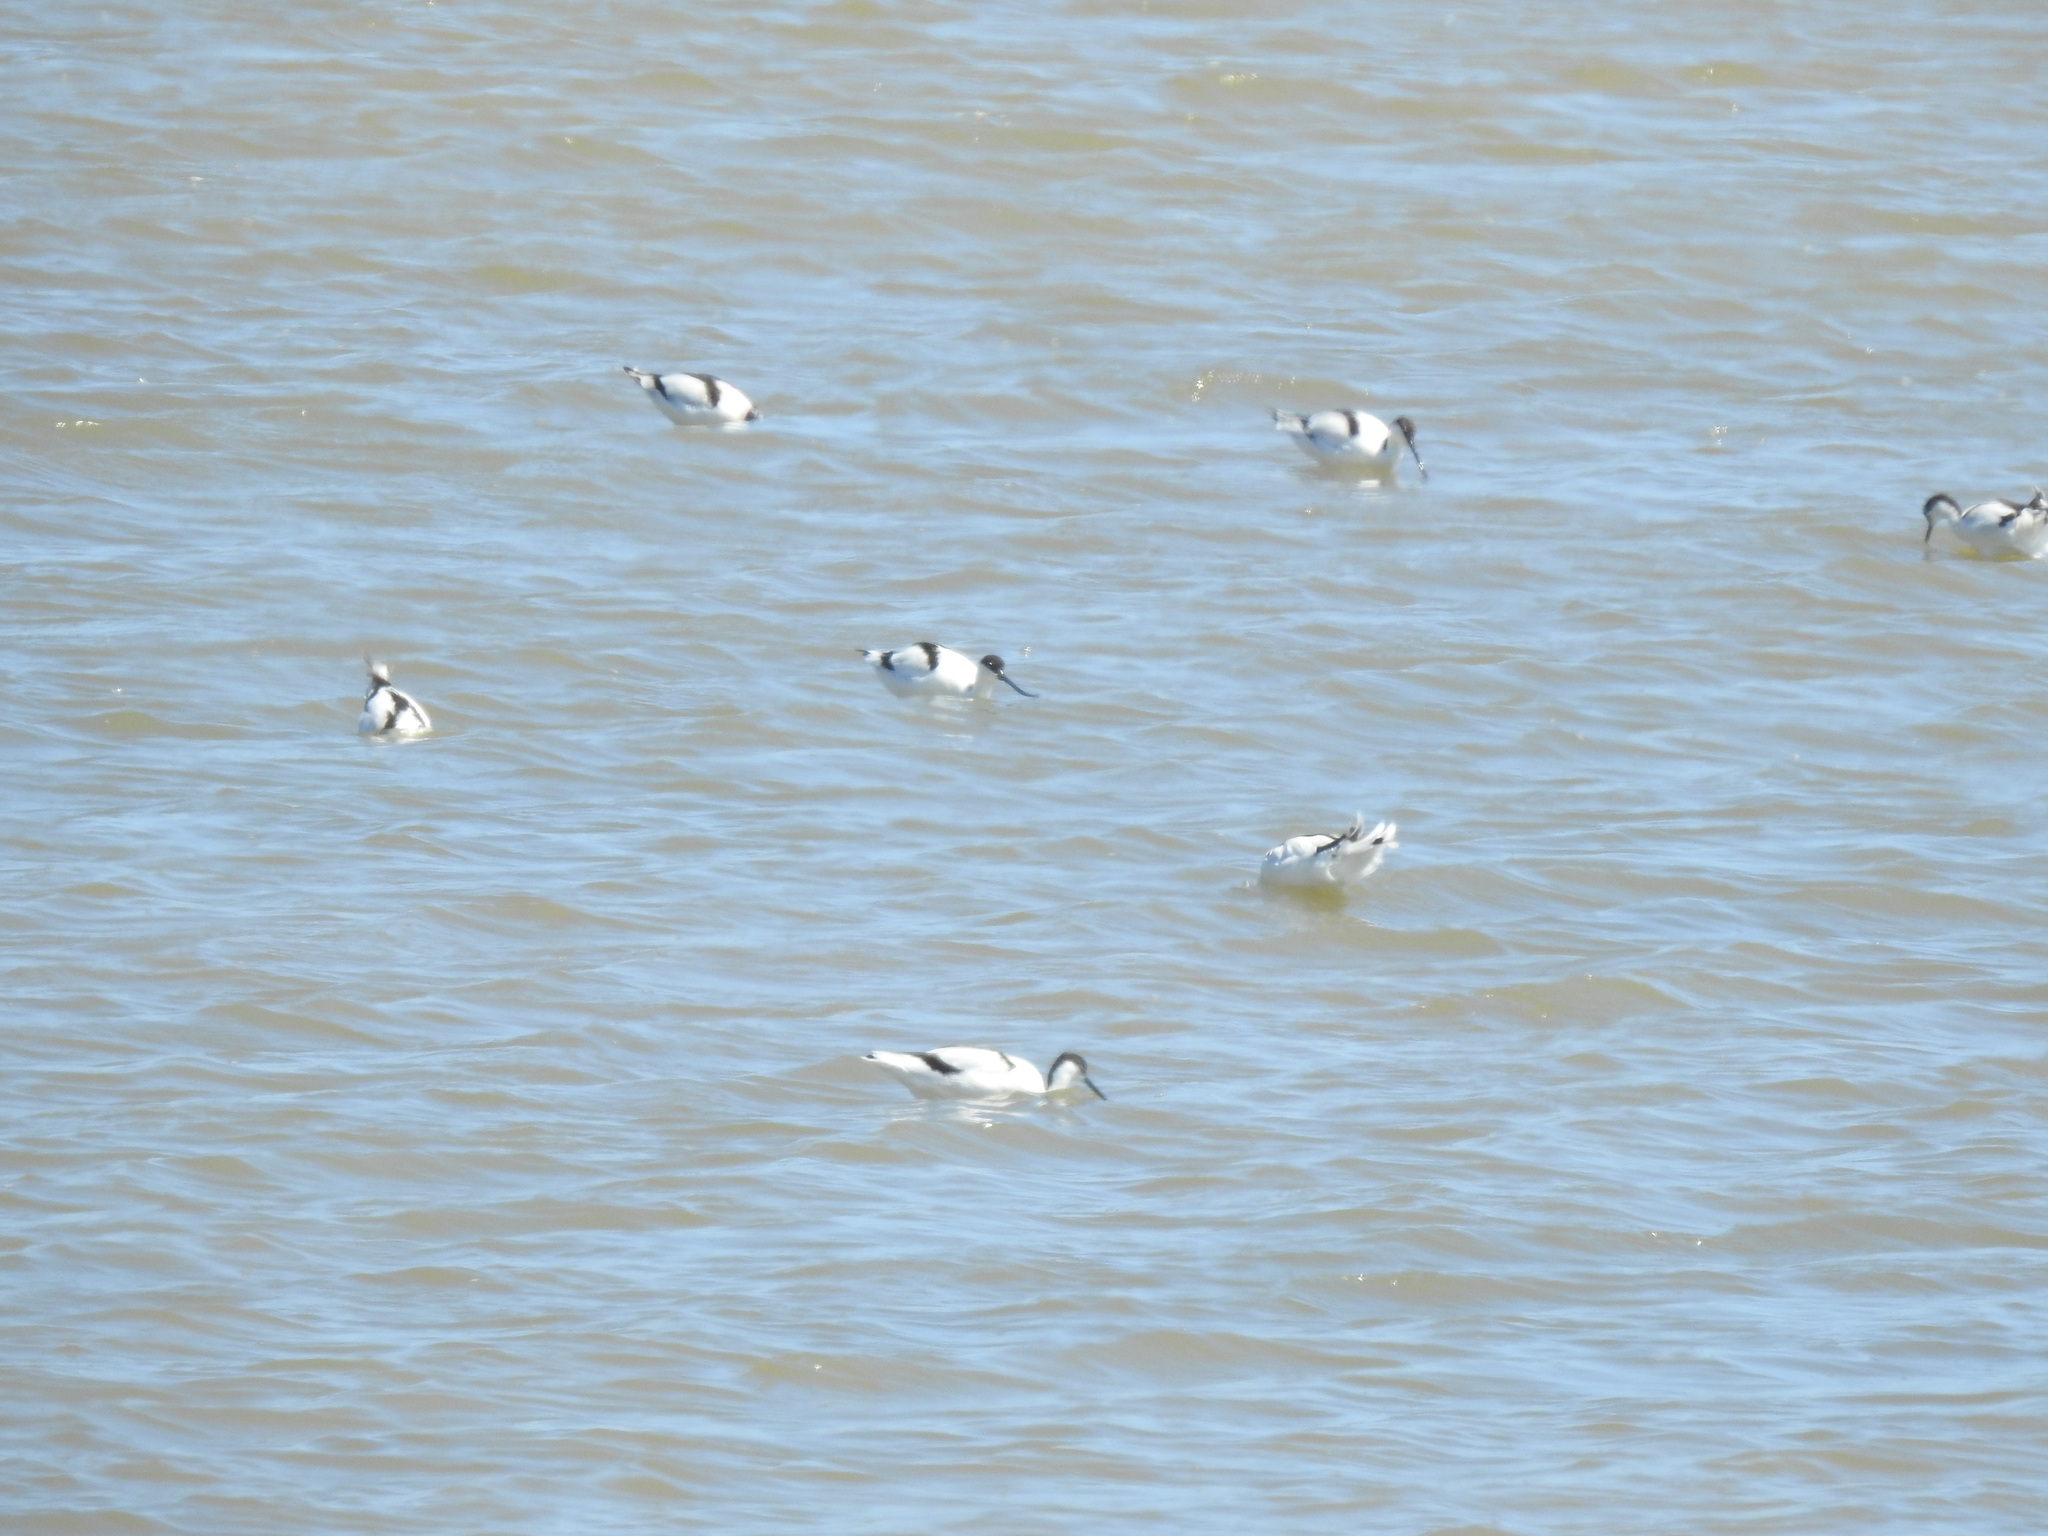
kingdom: Animalia
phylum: Chordata
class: Aves
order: Charadriiformes
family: Recurvirostridae
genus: Recurvirostra
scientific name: Recurvirostra avosetta
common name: Pied avocet
